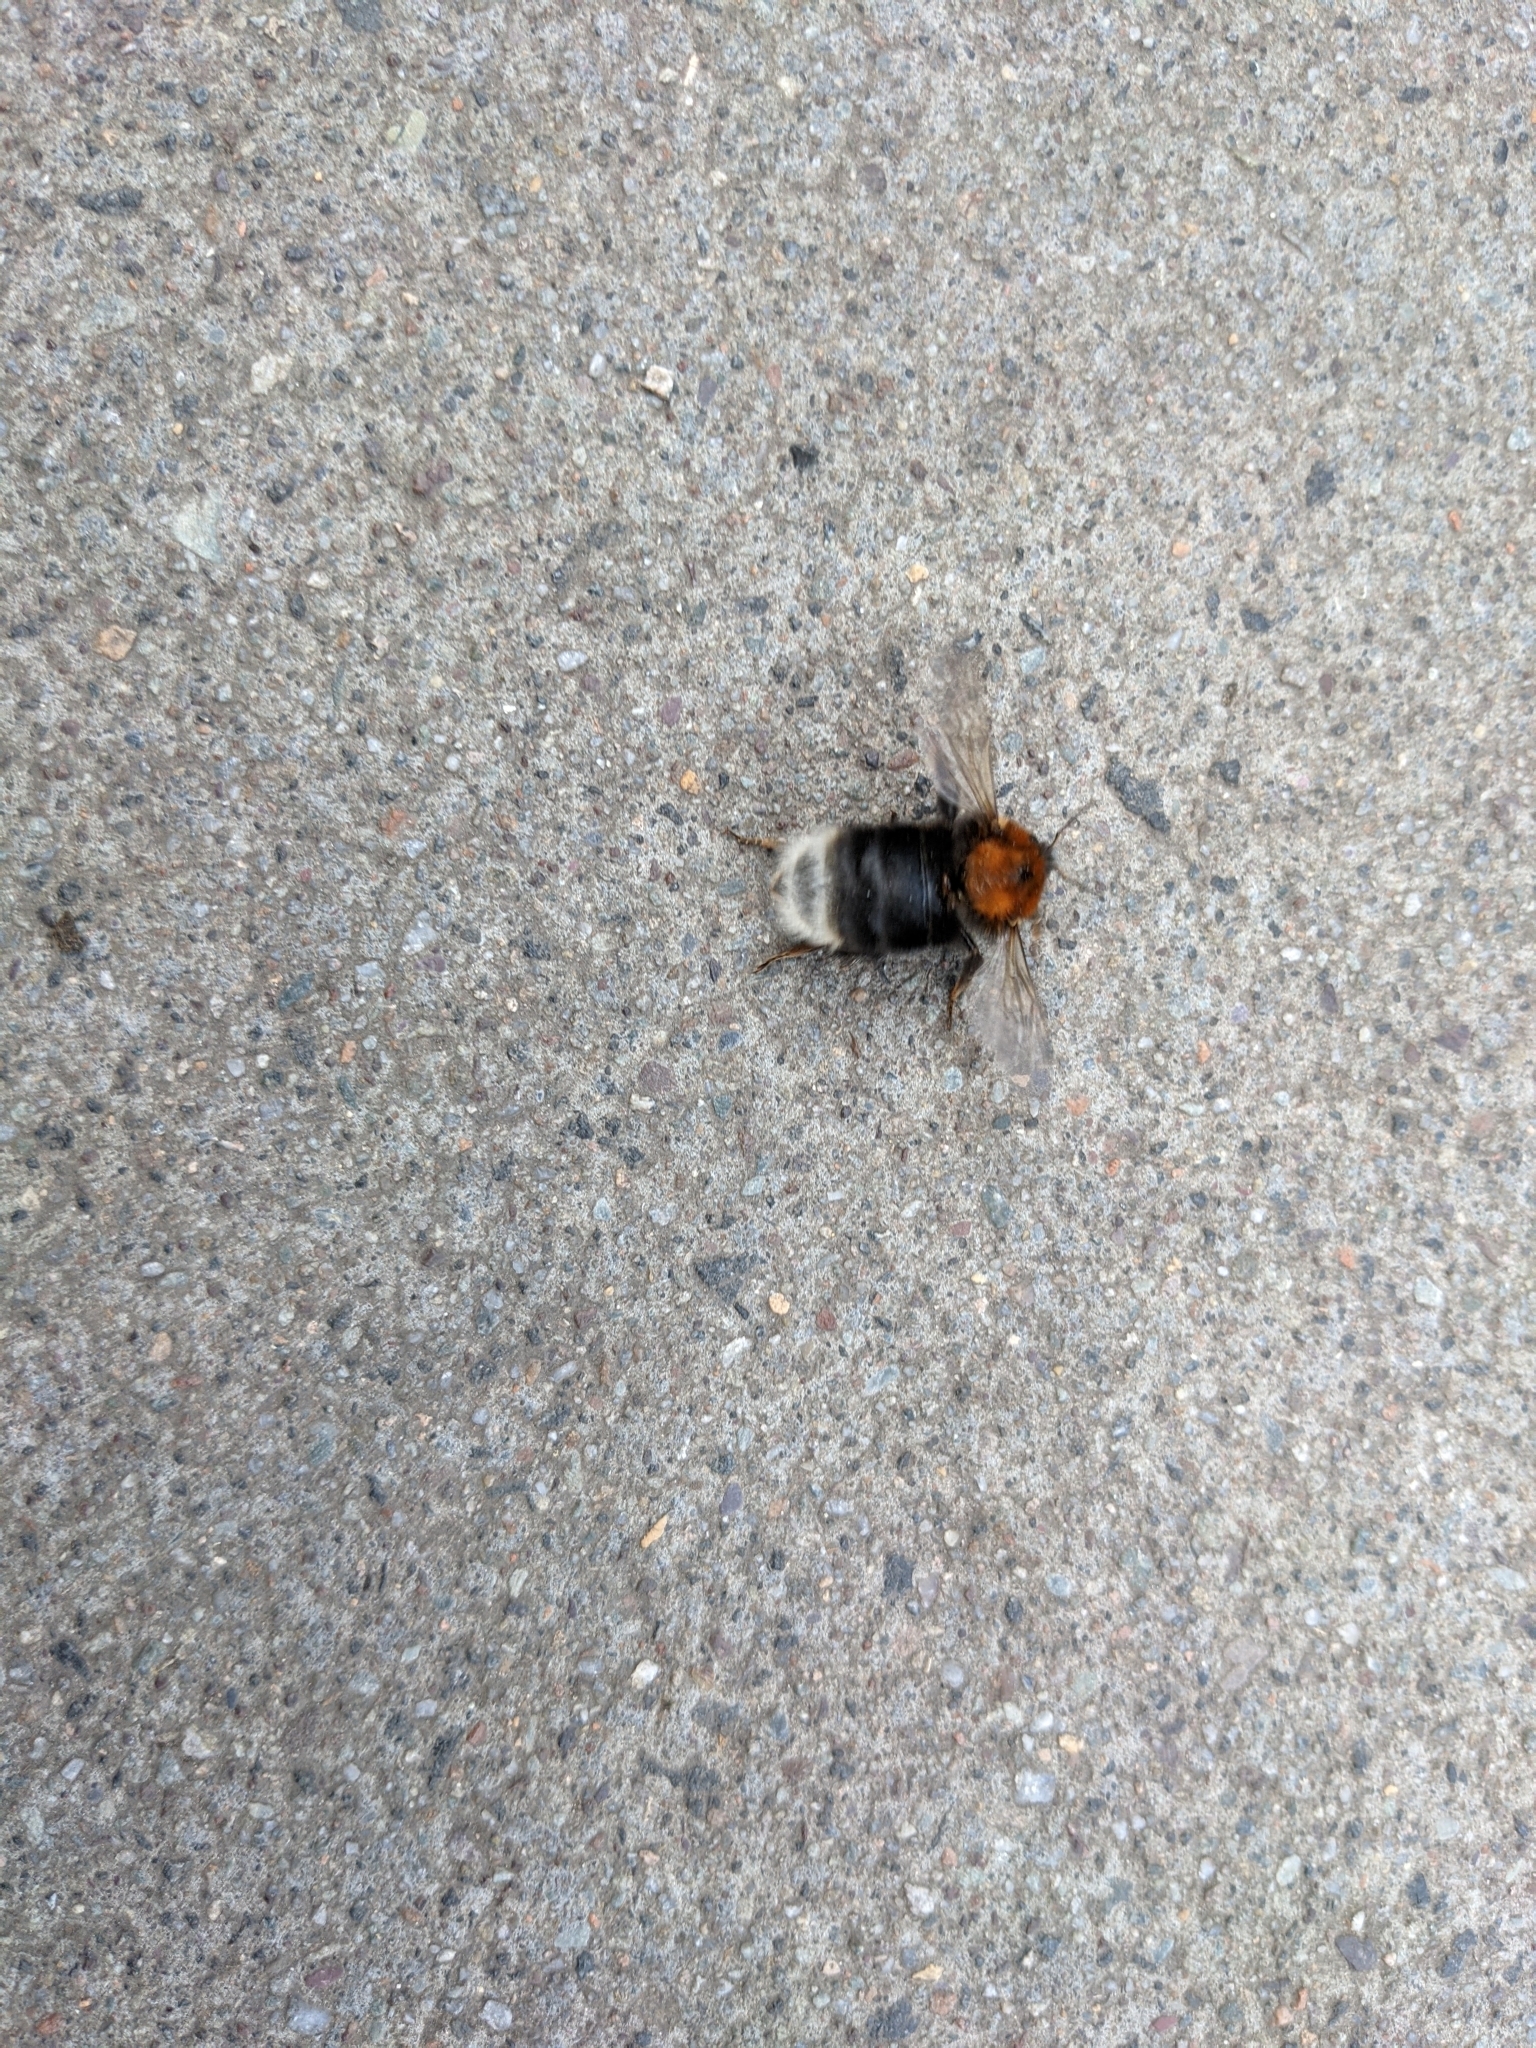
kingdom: Animalia
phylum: Arthropoda
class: Insecta
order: Hymenoptera
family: Apidae
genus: Bombus
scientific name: Bombus hypnorum
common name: New garden bumblebee
